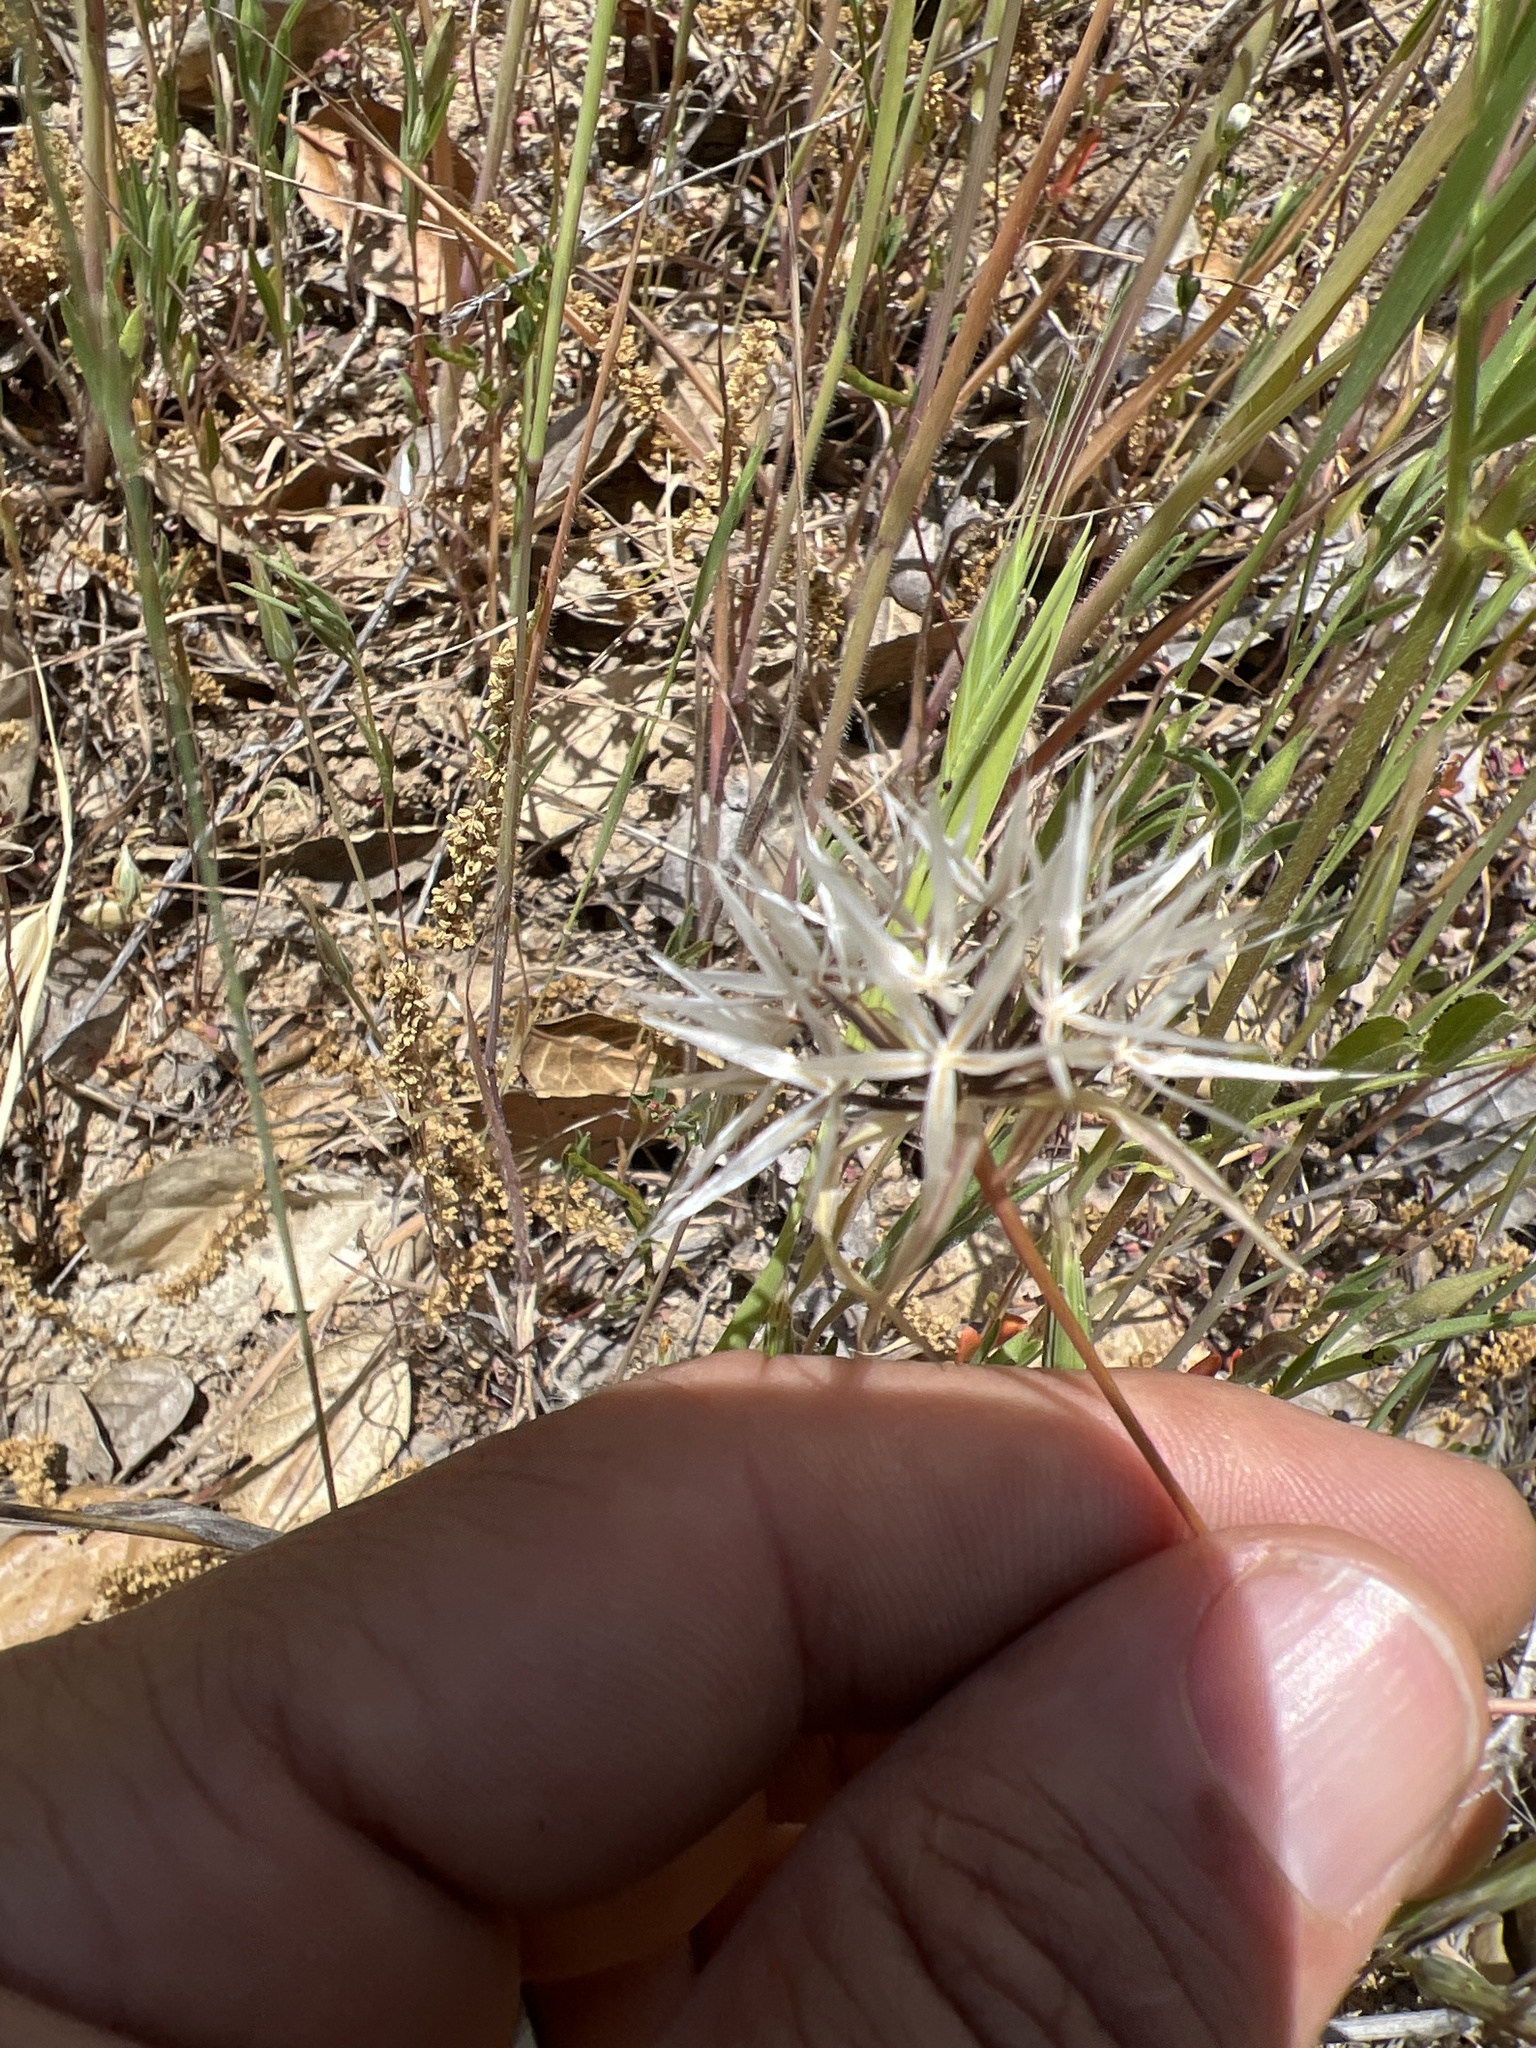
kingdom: Plantae
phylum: Tracheophyta
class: Magnoliopsida
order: Asterales
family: Asteraceae
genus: Microseris
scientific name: Microseris lindleyi
